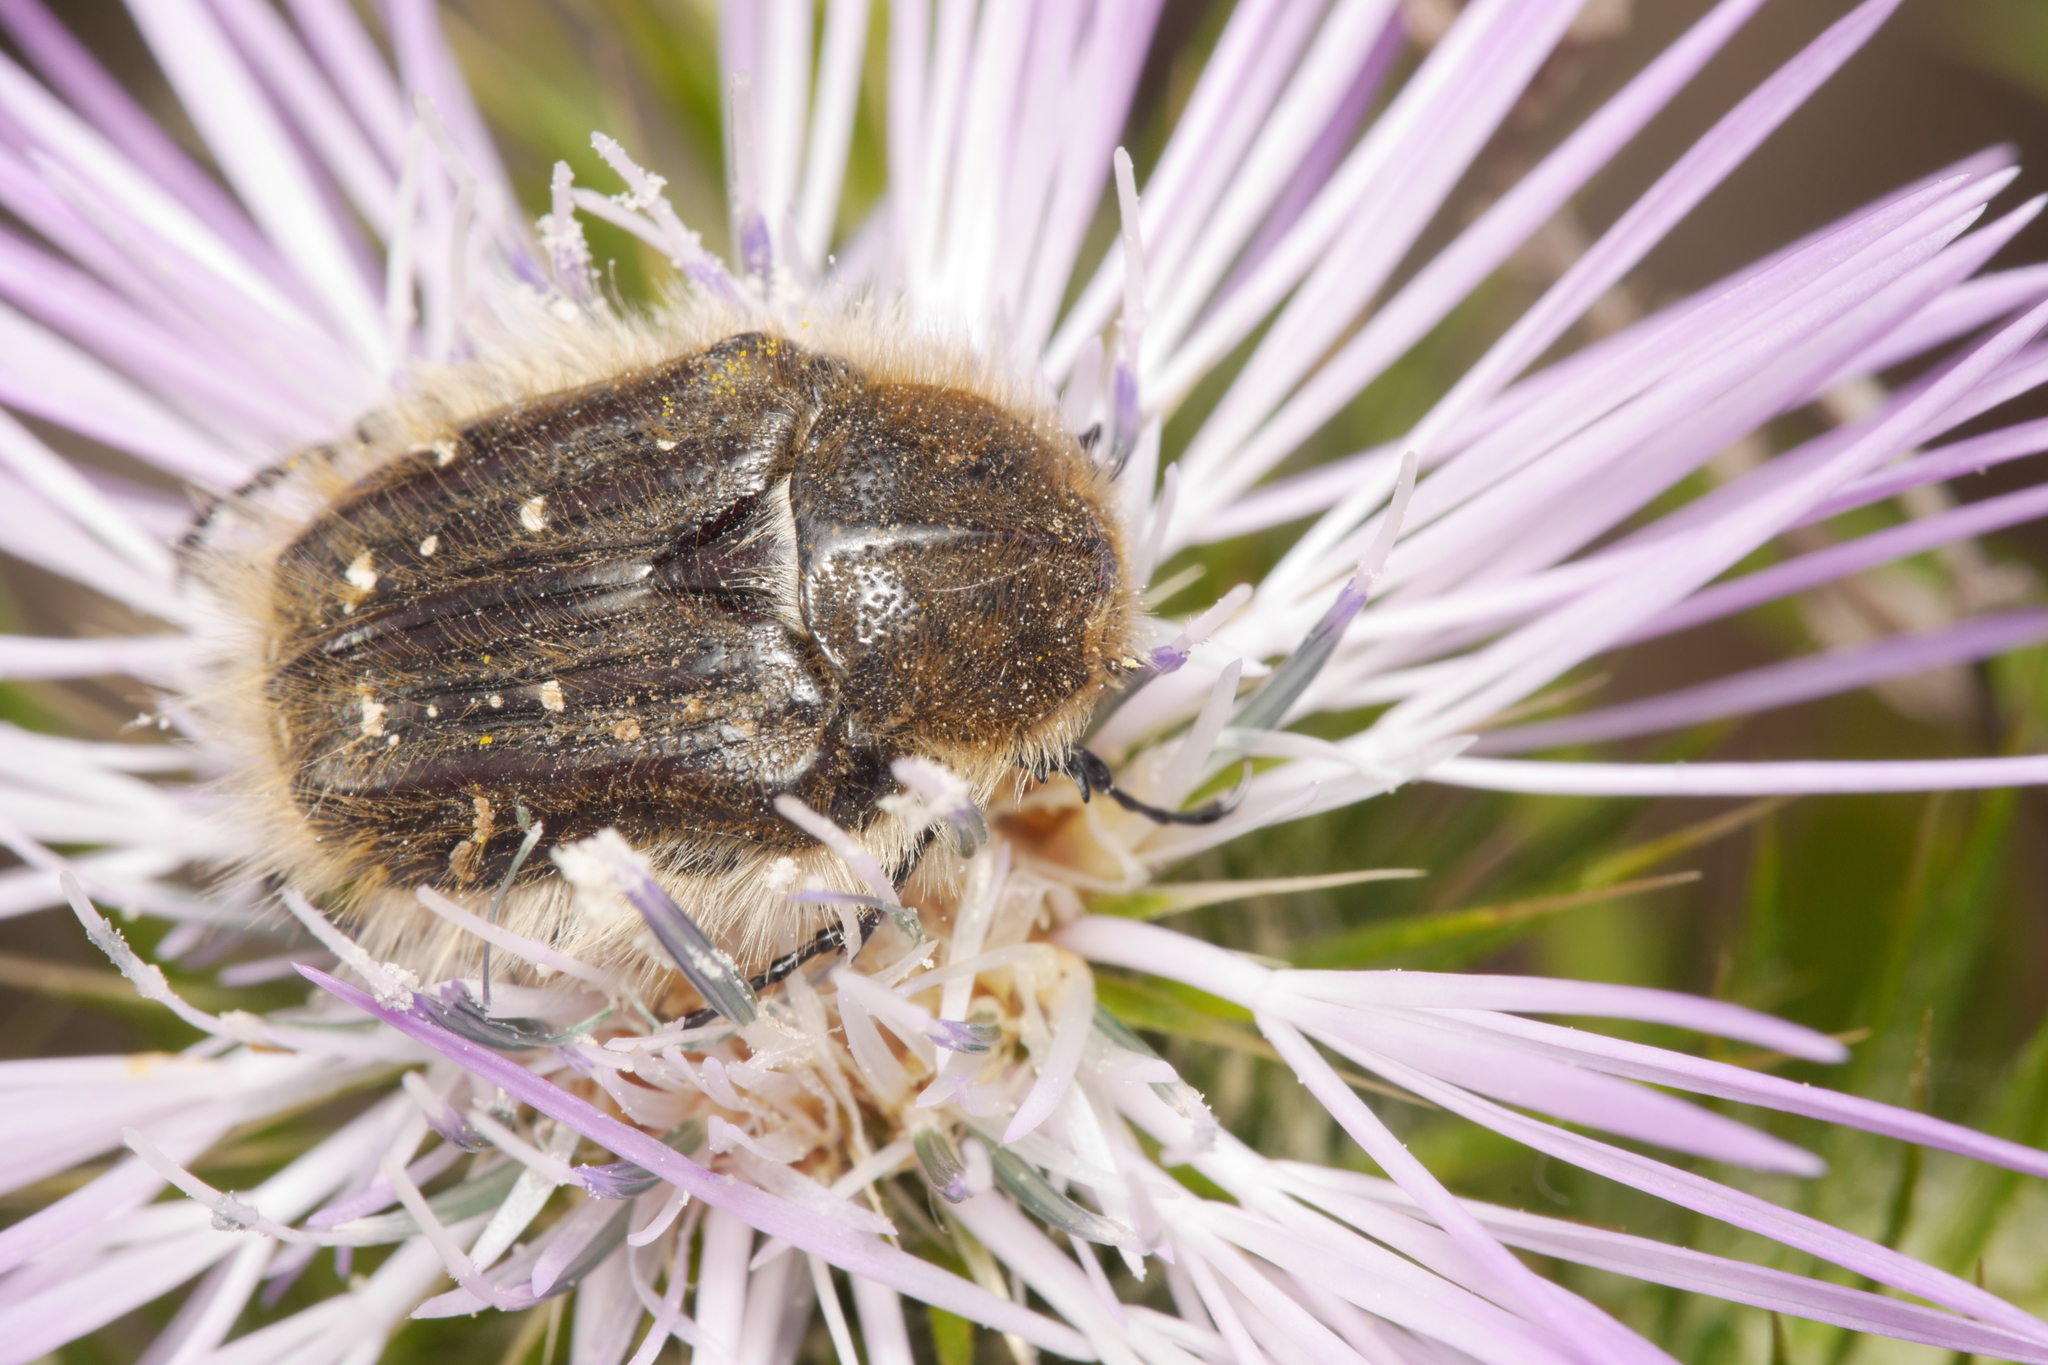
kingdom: Animalia
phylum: Arthropoda
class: Insecta
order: Coleoptera
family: Scarabaeidae
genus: Tropinota
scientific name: Tropinota squalida
